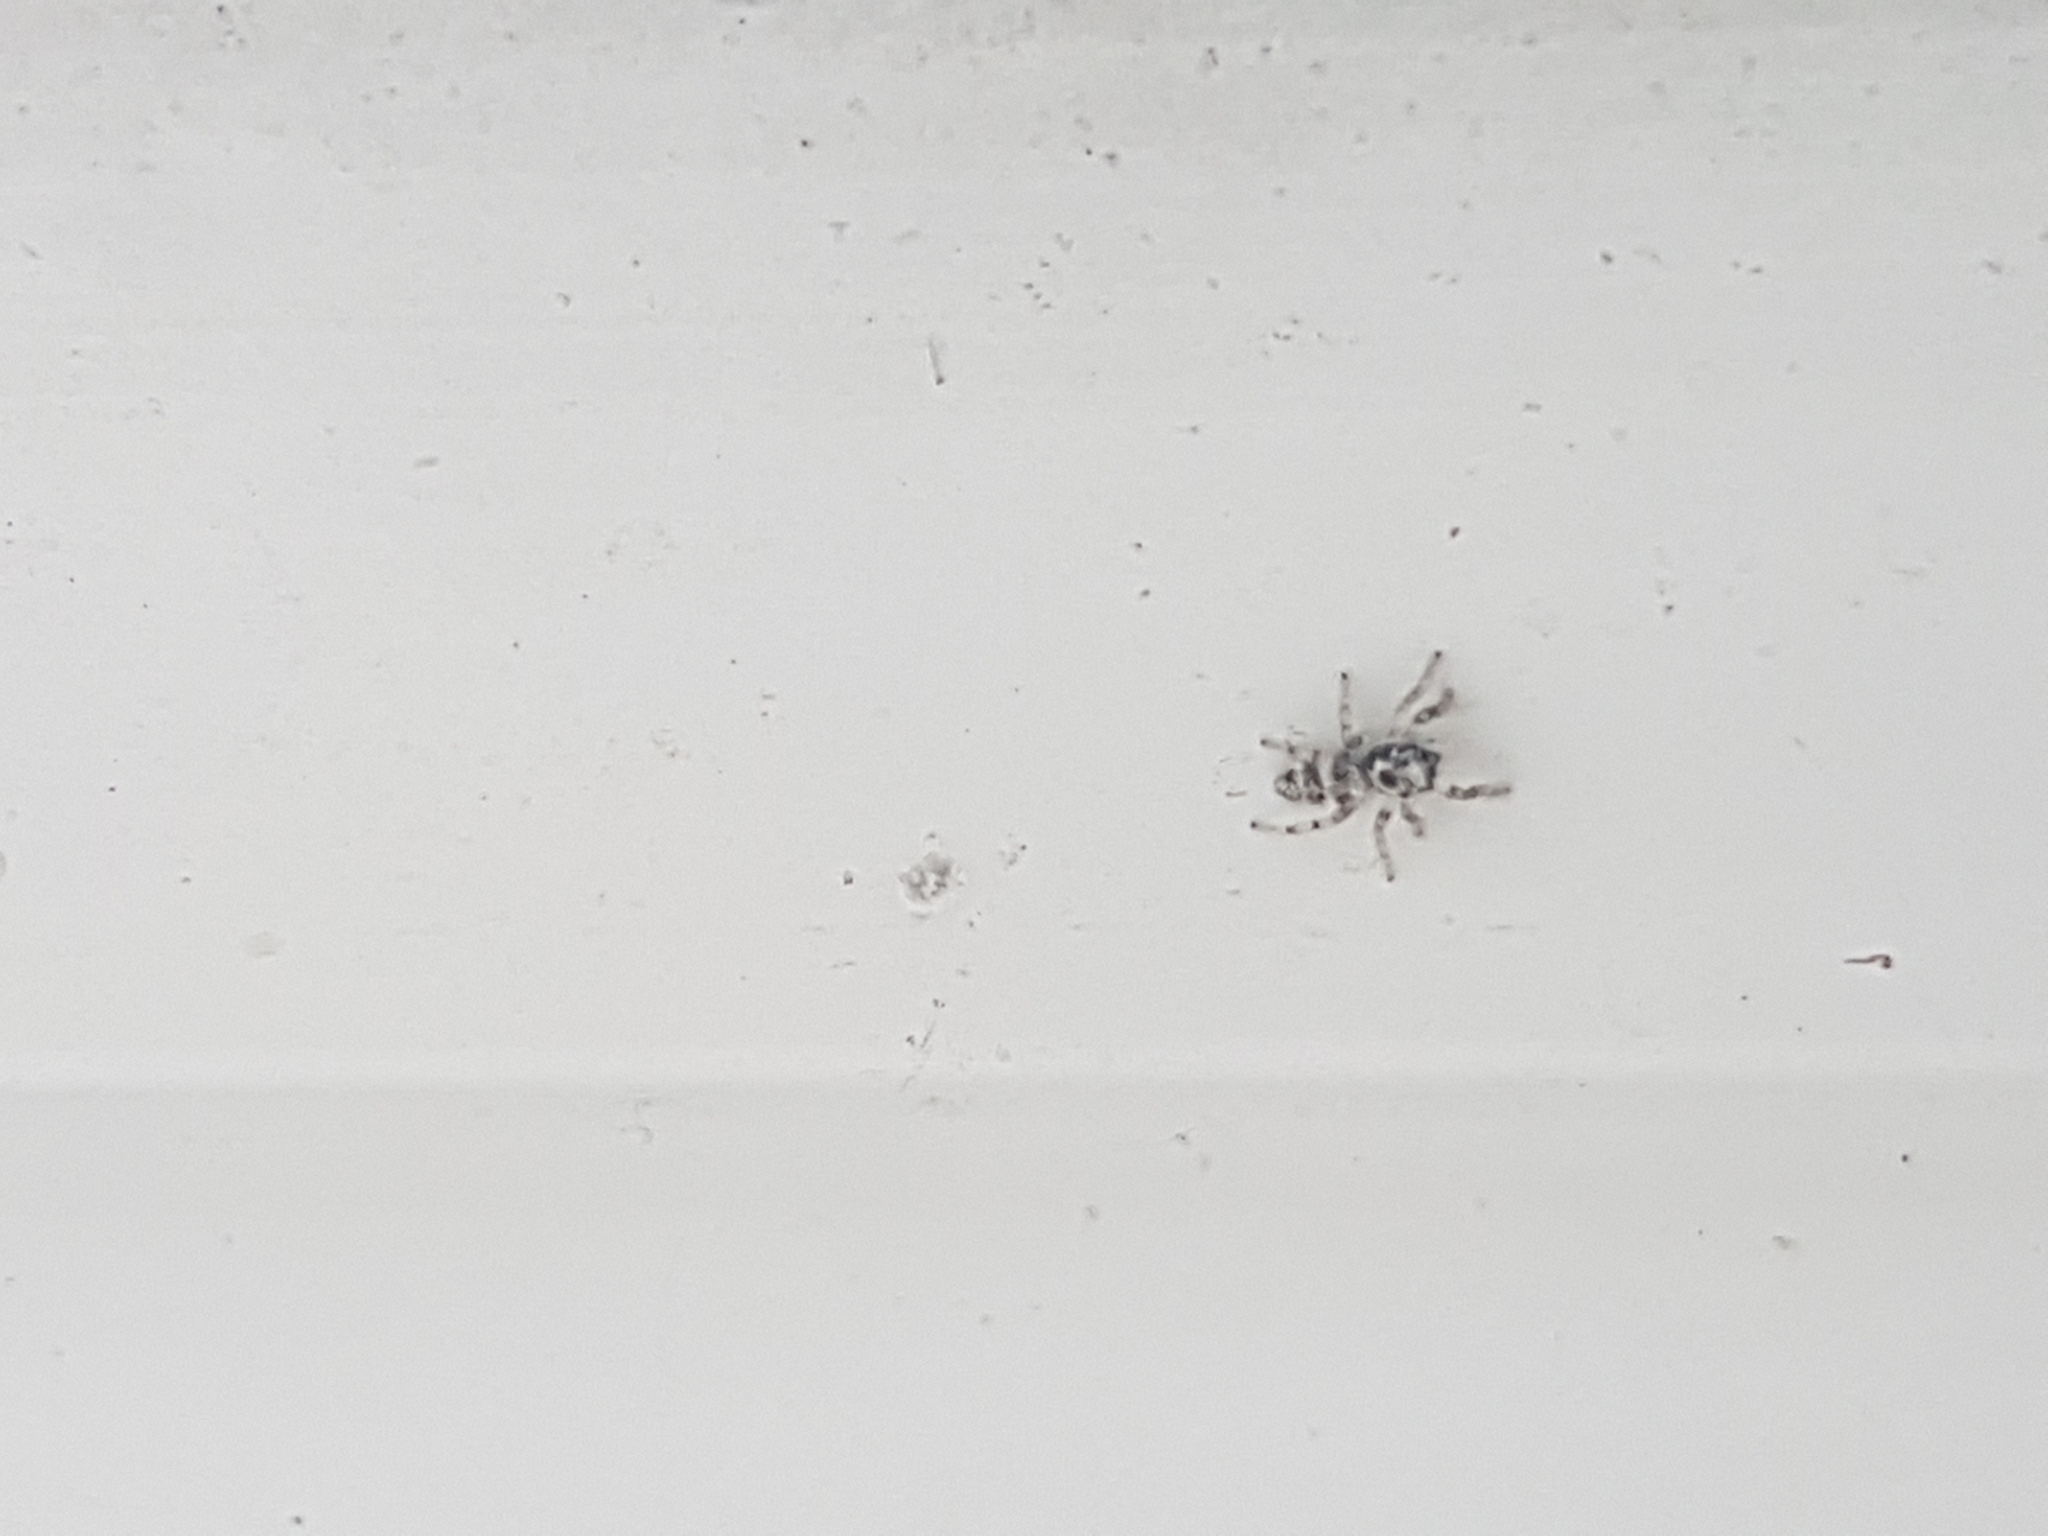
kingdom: Animalia
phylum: Arthropoda
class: Arachnida
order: Araneae
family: Salticidae
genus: Salticus
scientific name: Salticus scenicus
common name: Zebra jumper
